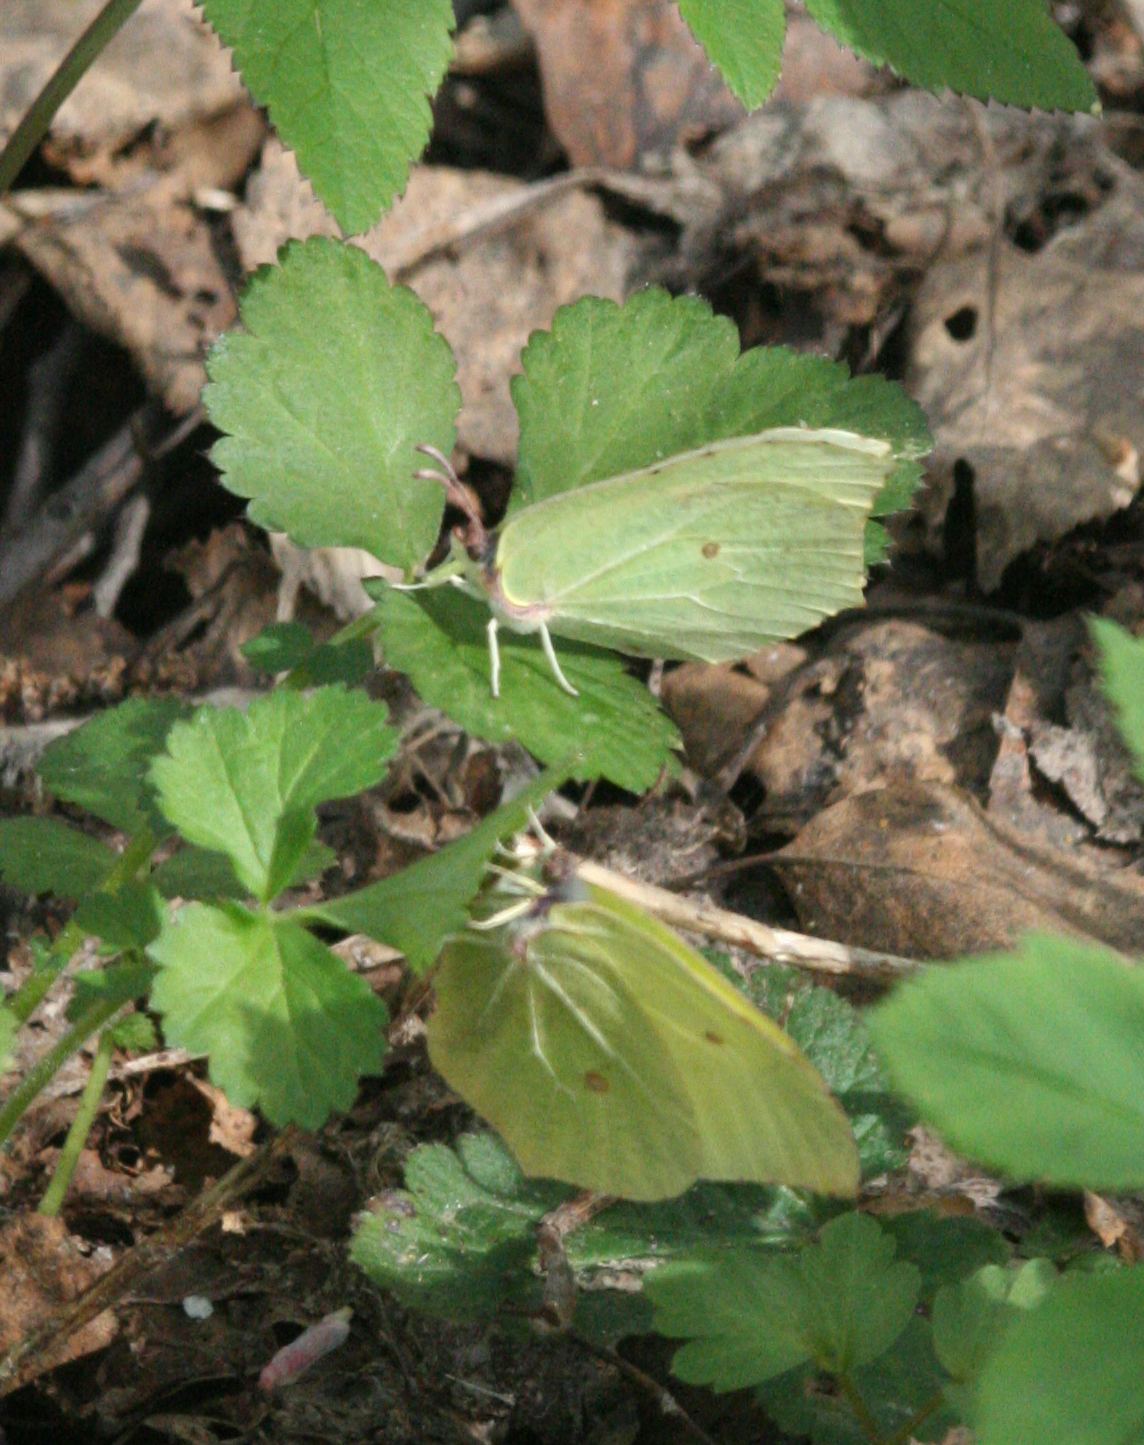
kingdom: Animalia
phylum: Arthropoda
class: Insecta
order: Lepidoptera
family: Pieridae
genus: Gonepteryx
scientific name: Gonepteryx rhamni
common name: Brimstone
